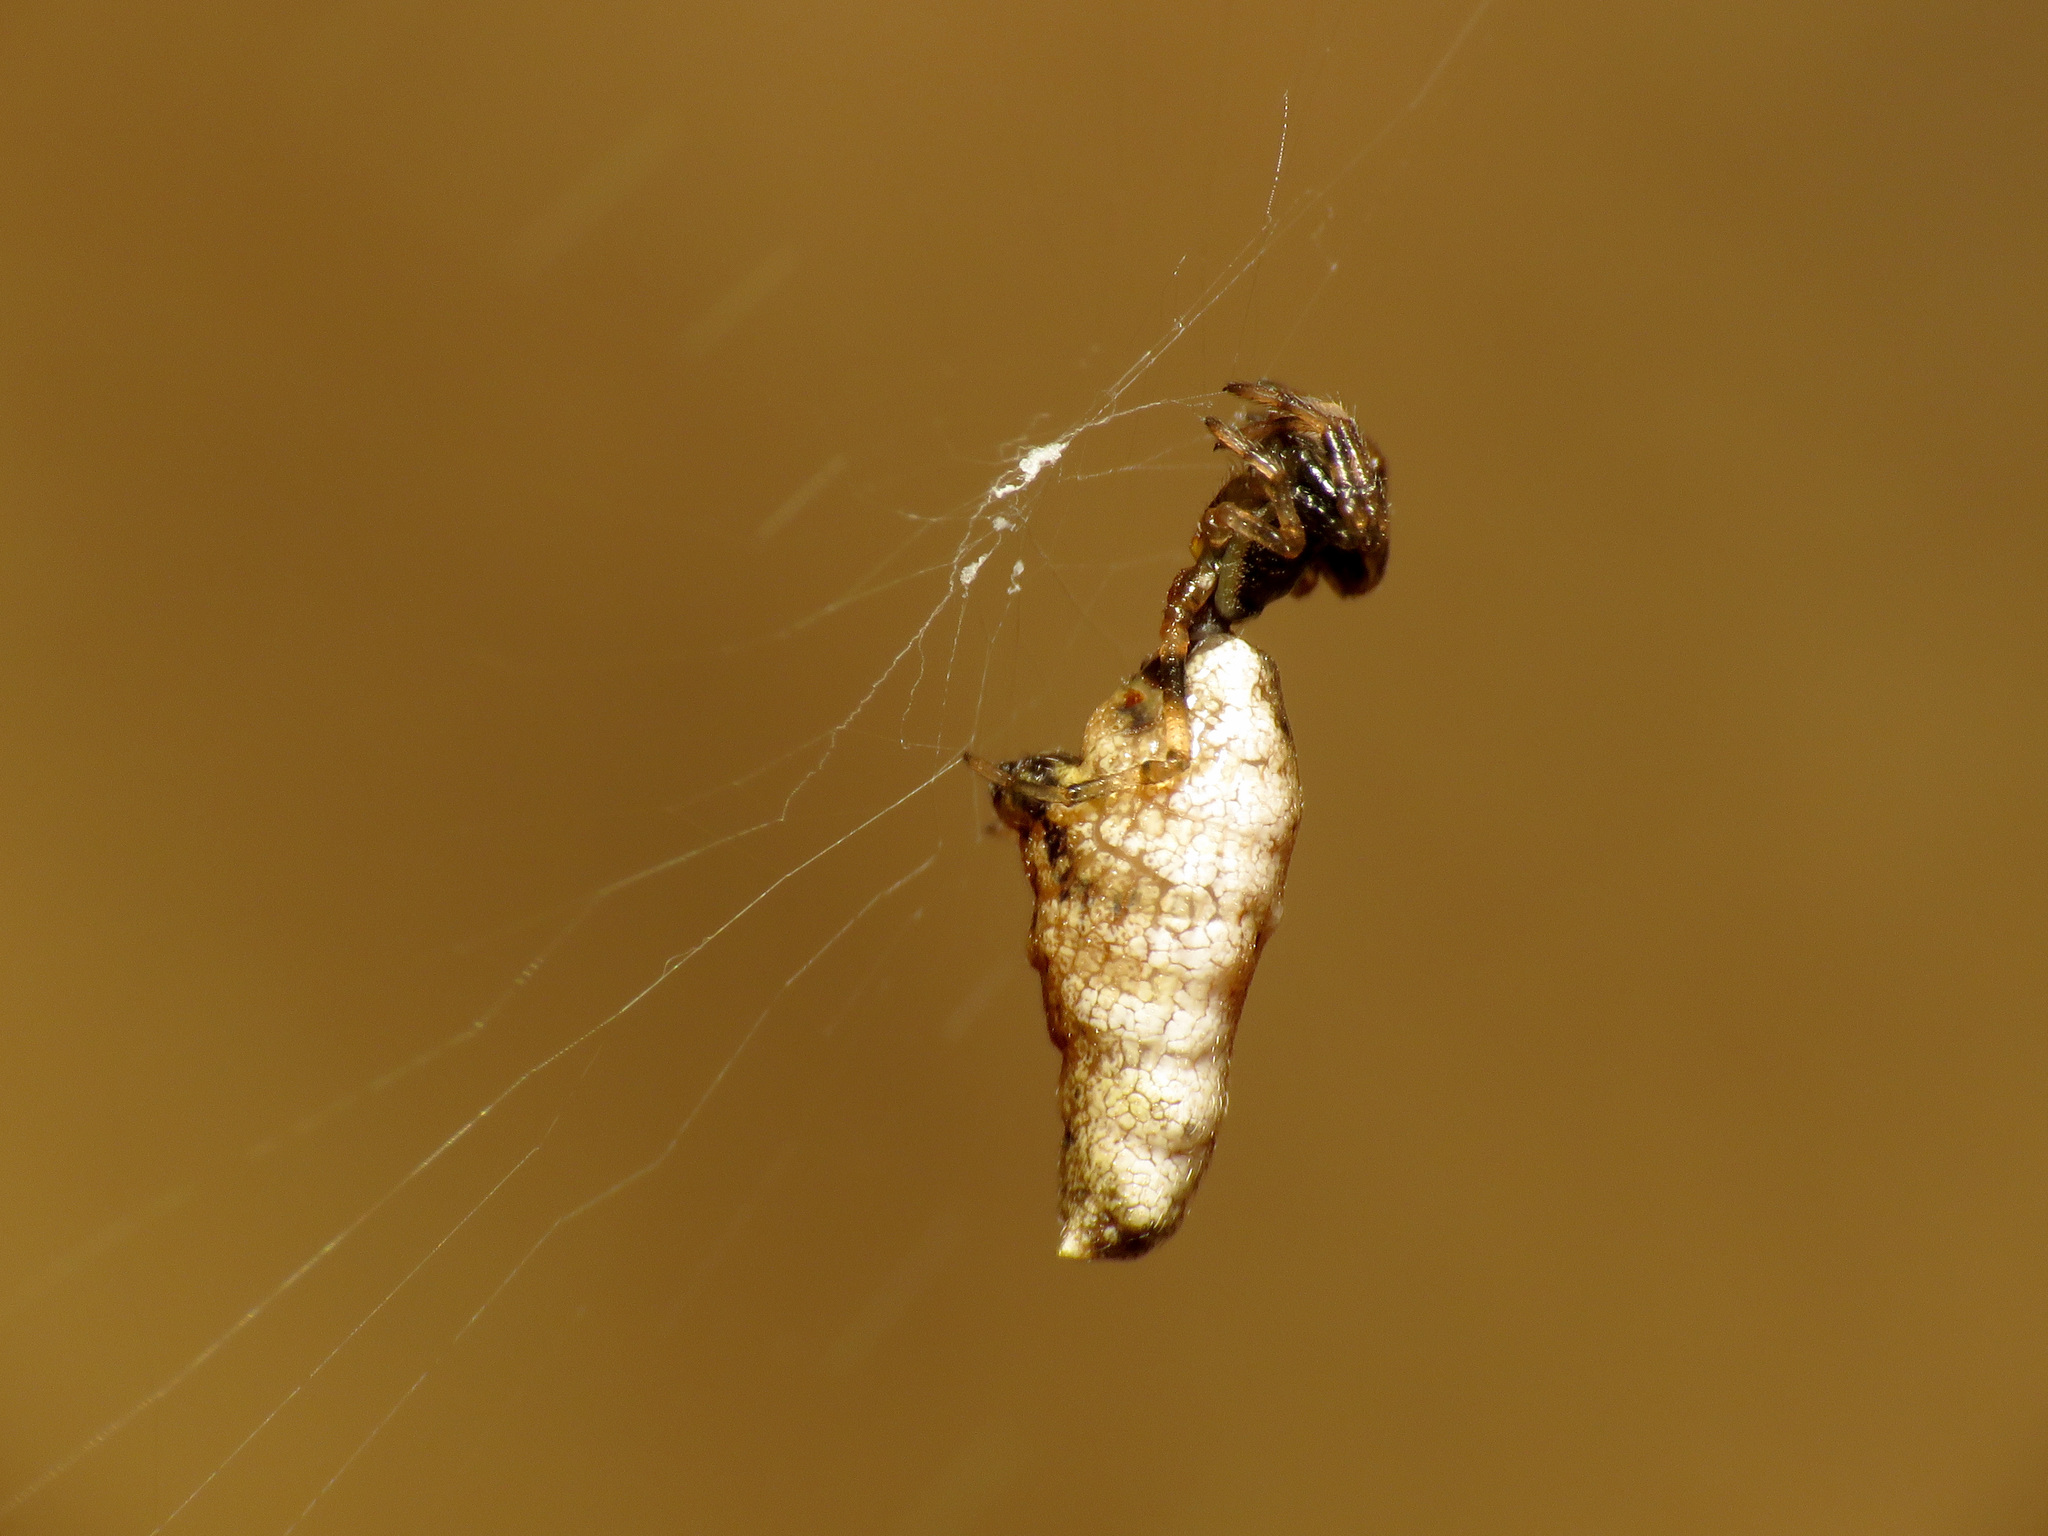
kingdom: Animalia
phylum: Arthropoda
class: Arachnida
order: Araneae
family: Araneidae
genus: Micrathena
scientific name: Micrathena gracilis
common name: Orb weavers
